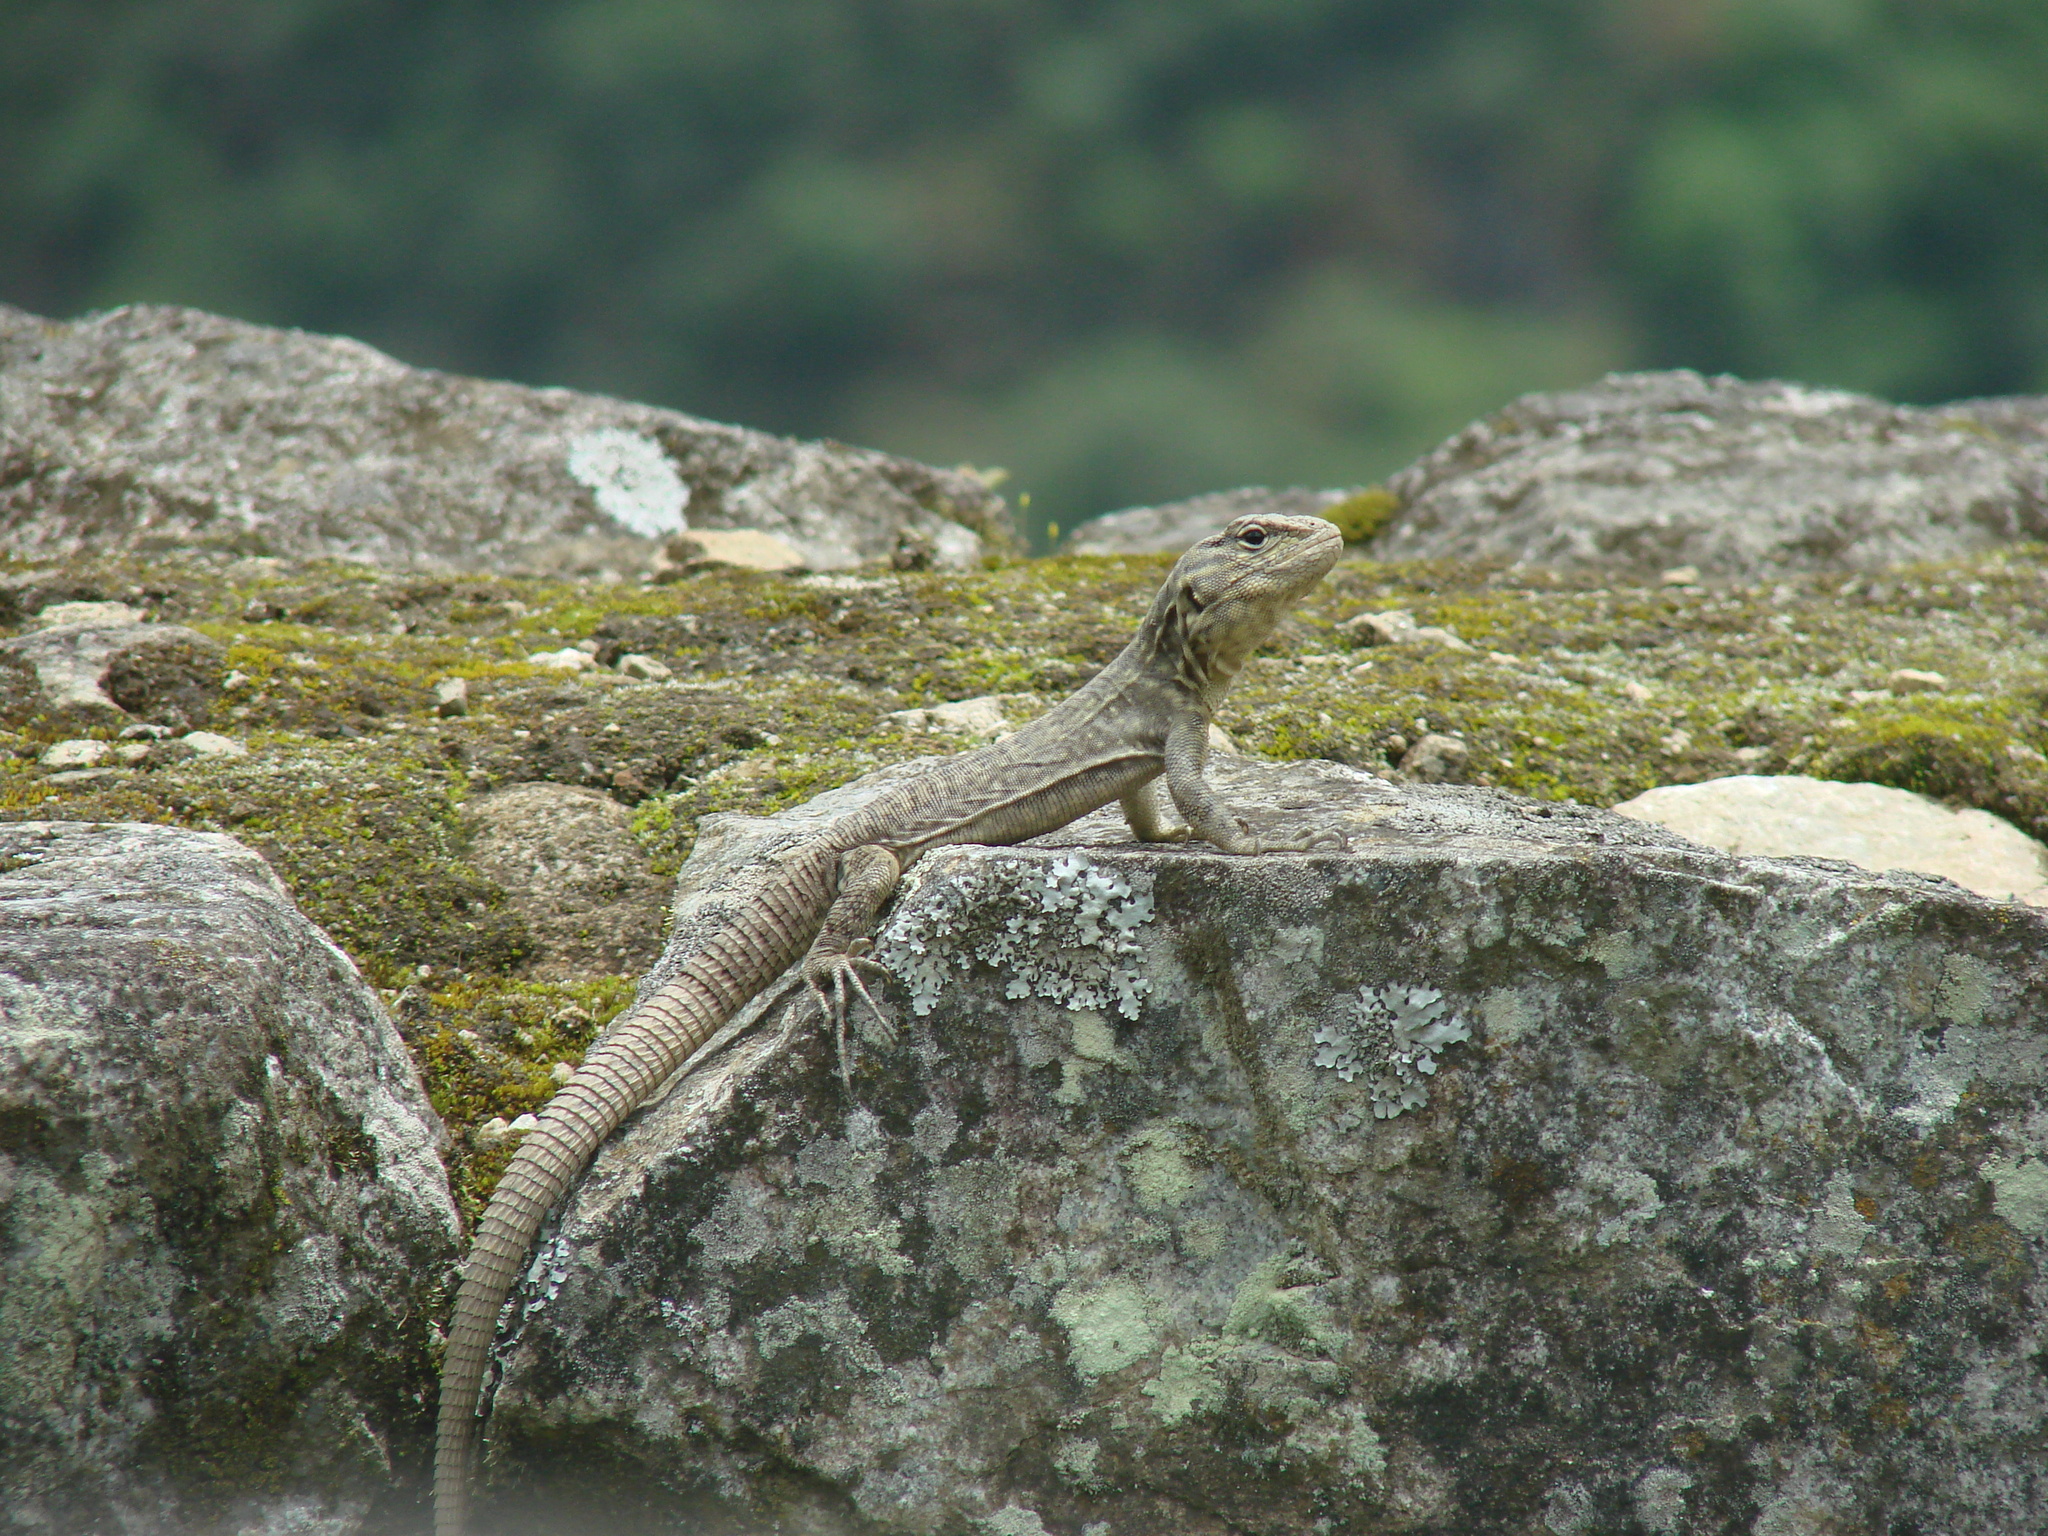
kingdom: Animalia
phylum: Chordata
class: Squamata
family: Tropiduridae
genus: Stenocercus
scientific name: Stenocercus crassicaudatus
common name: Spiny whorltail iguana
